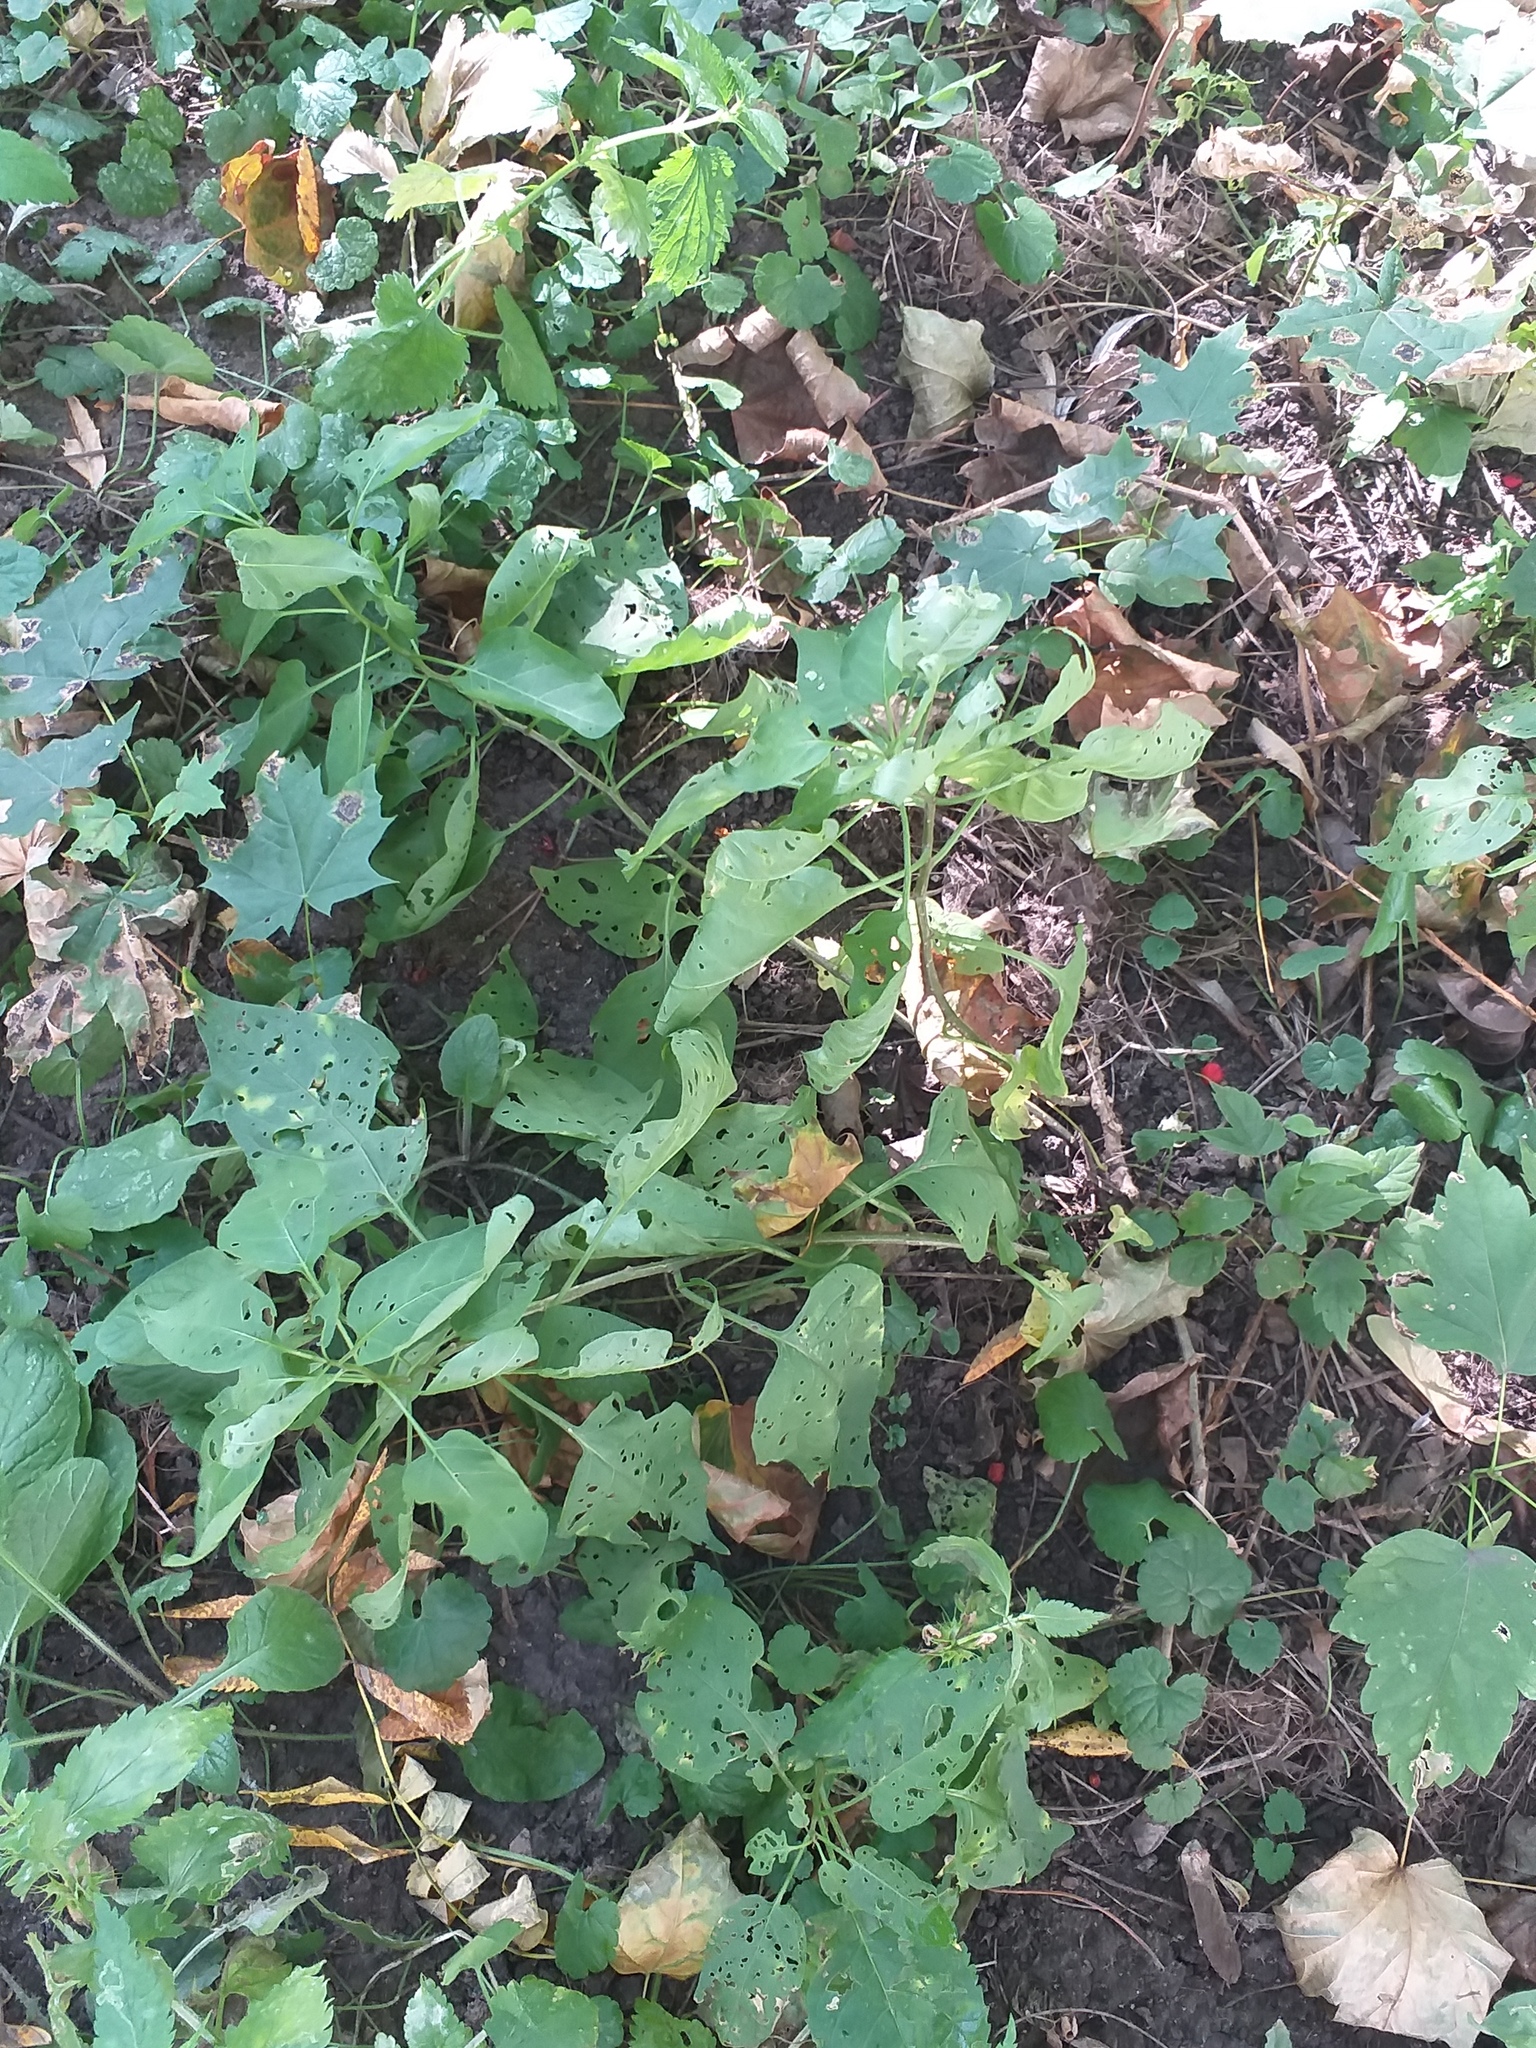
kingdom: Plantae
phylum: Tracheophyta
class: Magnoliopsida
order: Solanales
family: Solanaceae
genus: Solanum
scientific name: Solanum dulcamara
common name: Climbing nightshade
